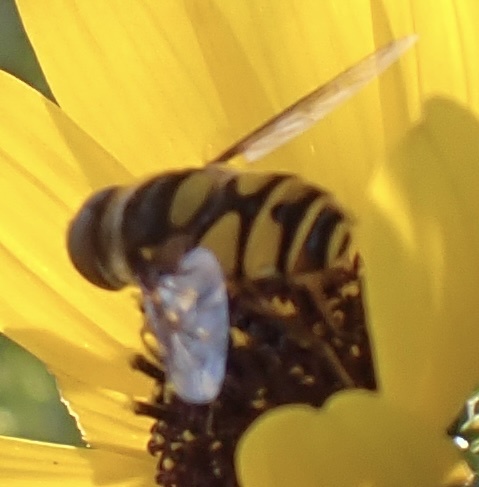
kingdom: Animalia
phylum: Arthropoda
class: Insecta
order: Diptera
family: Syrphidae
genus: Eristalis
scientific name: Eristalis transversa
